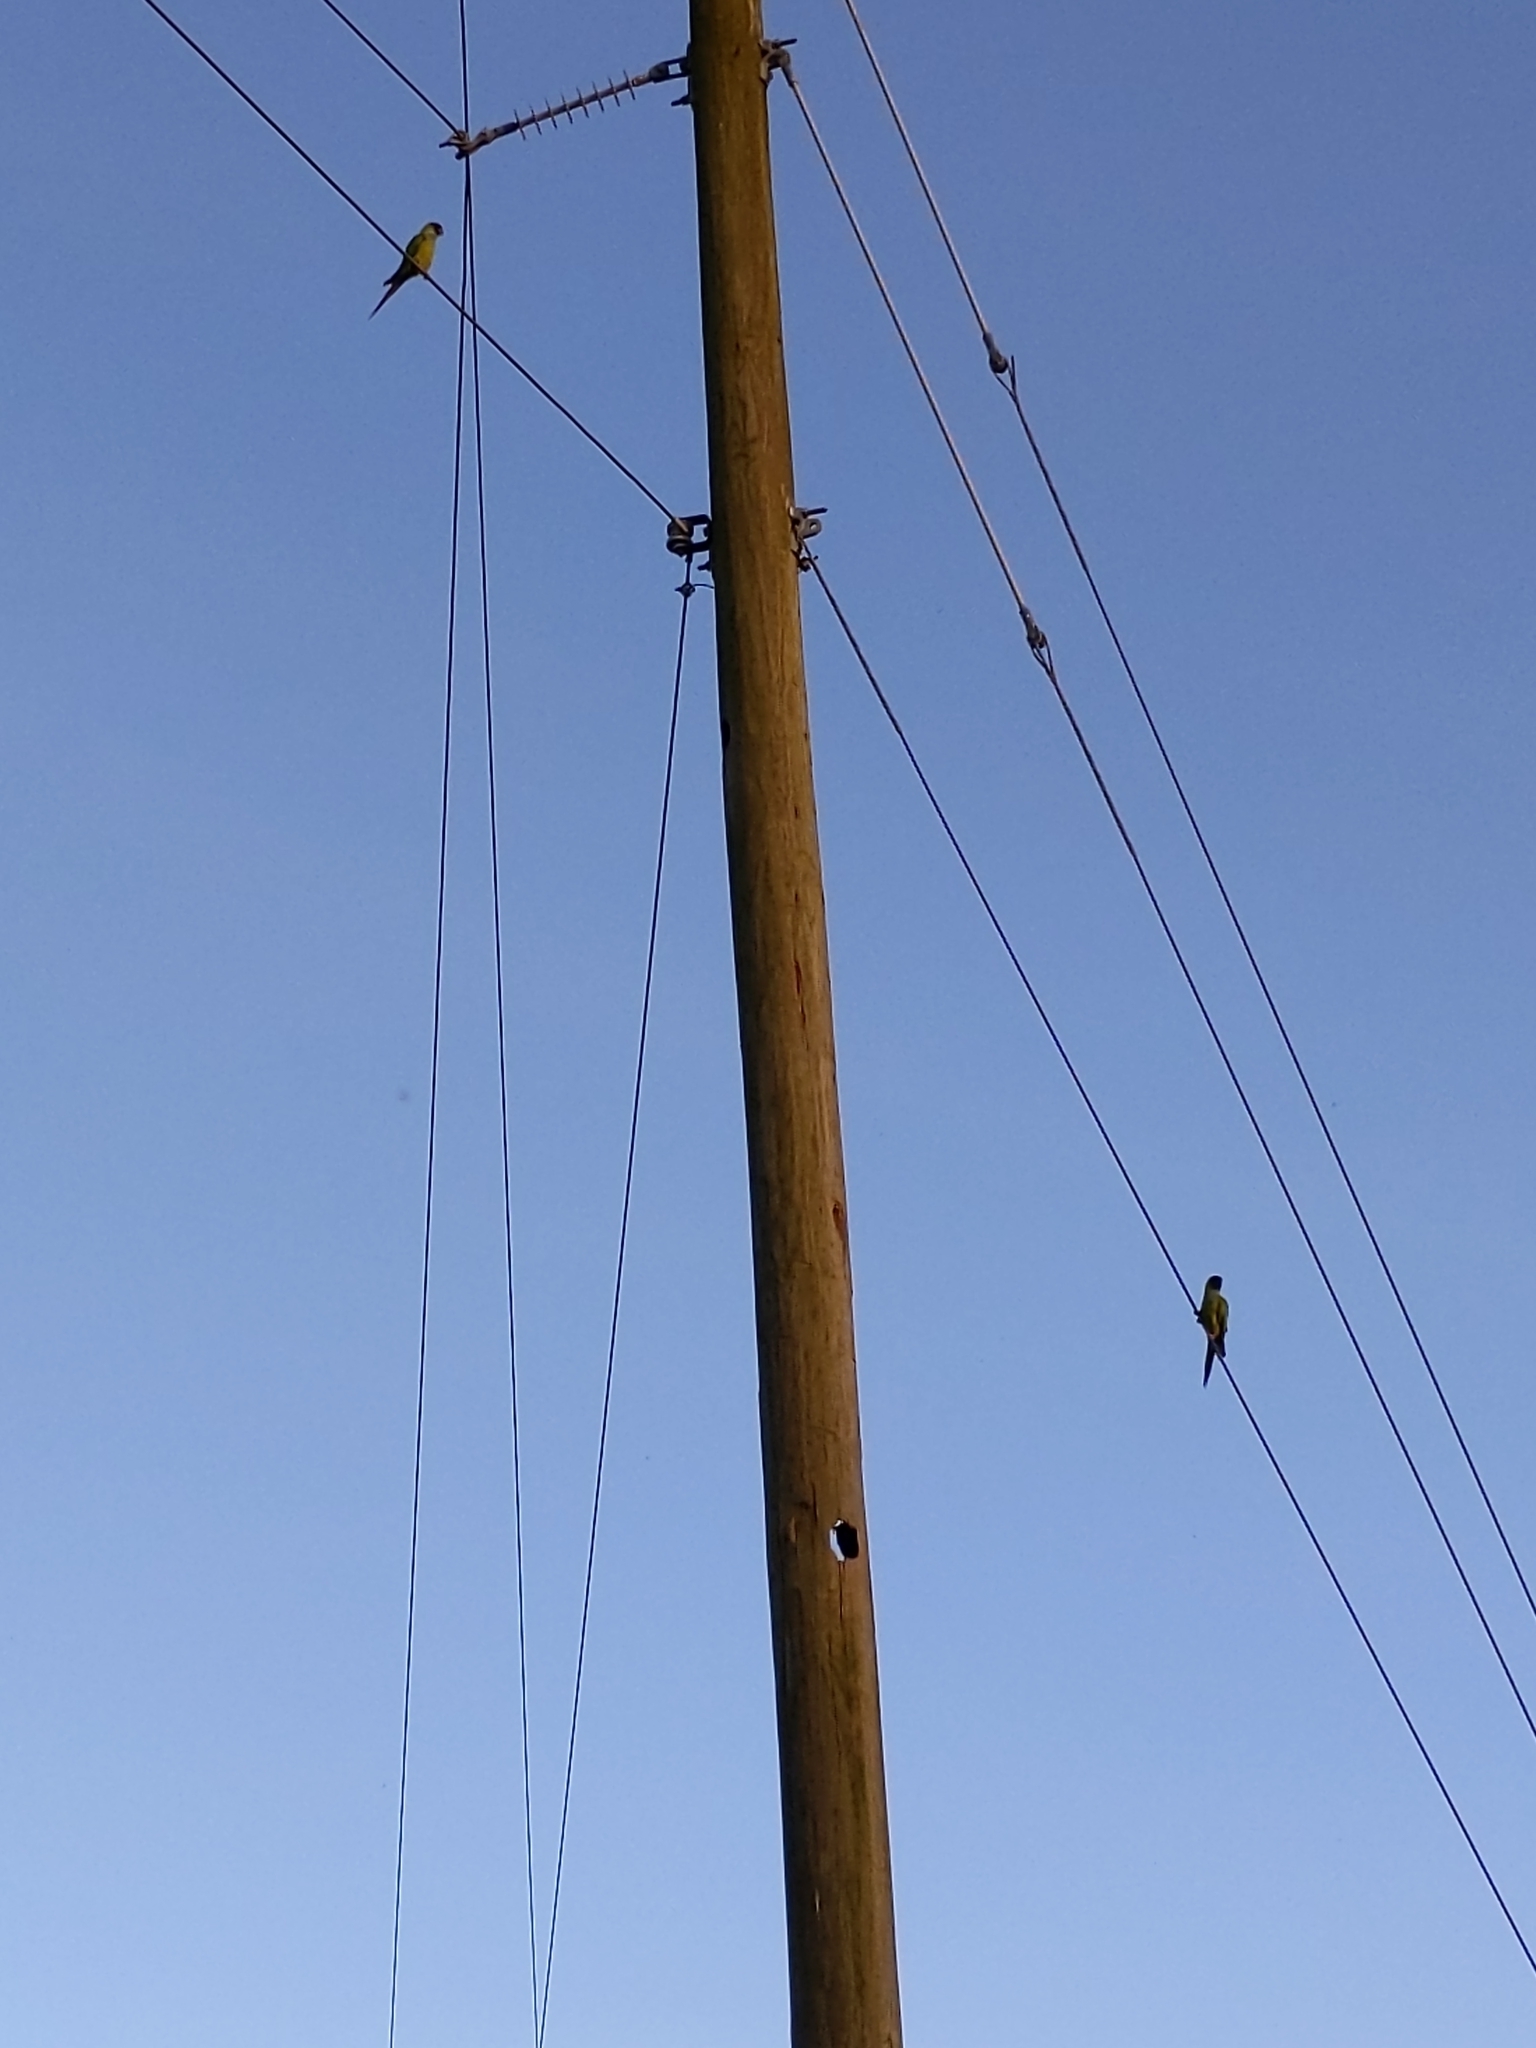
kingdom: Animalia
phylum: Chordata
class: Aves
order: Psittaciformes
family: Psittacidae
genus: Nandayus
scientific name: Nandayus nenday
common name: Nanday parakeet
